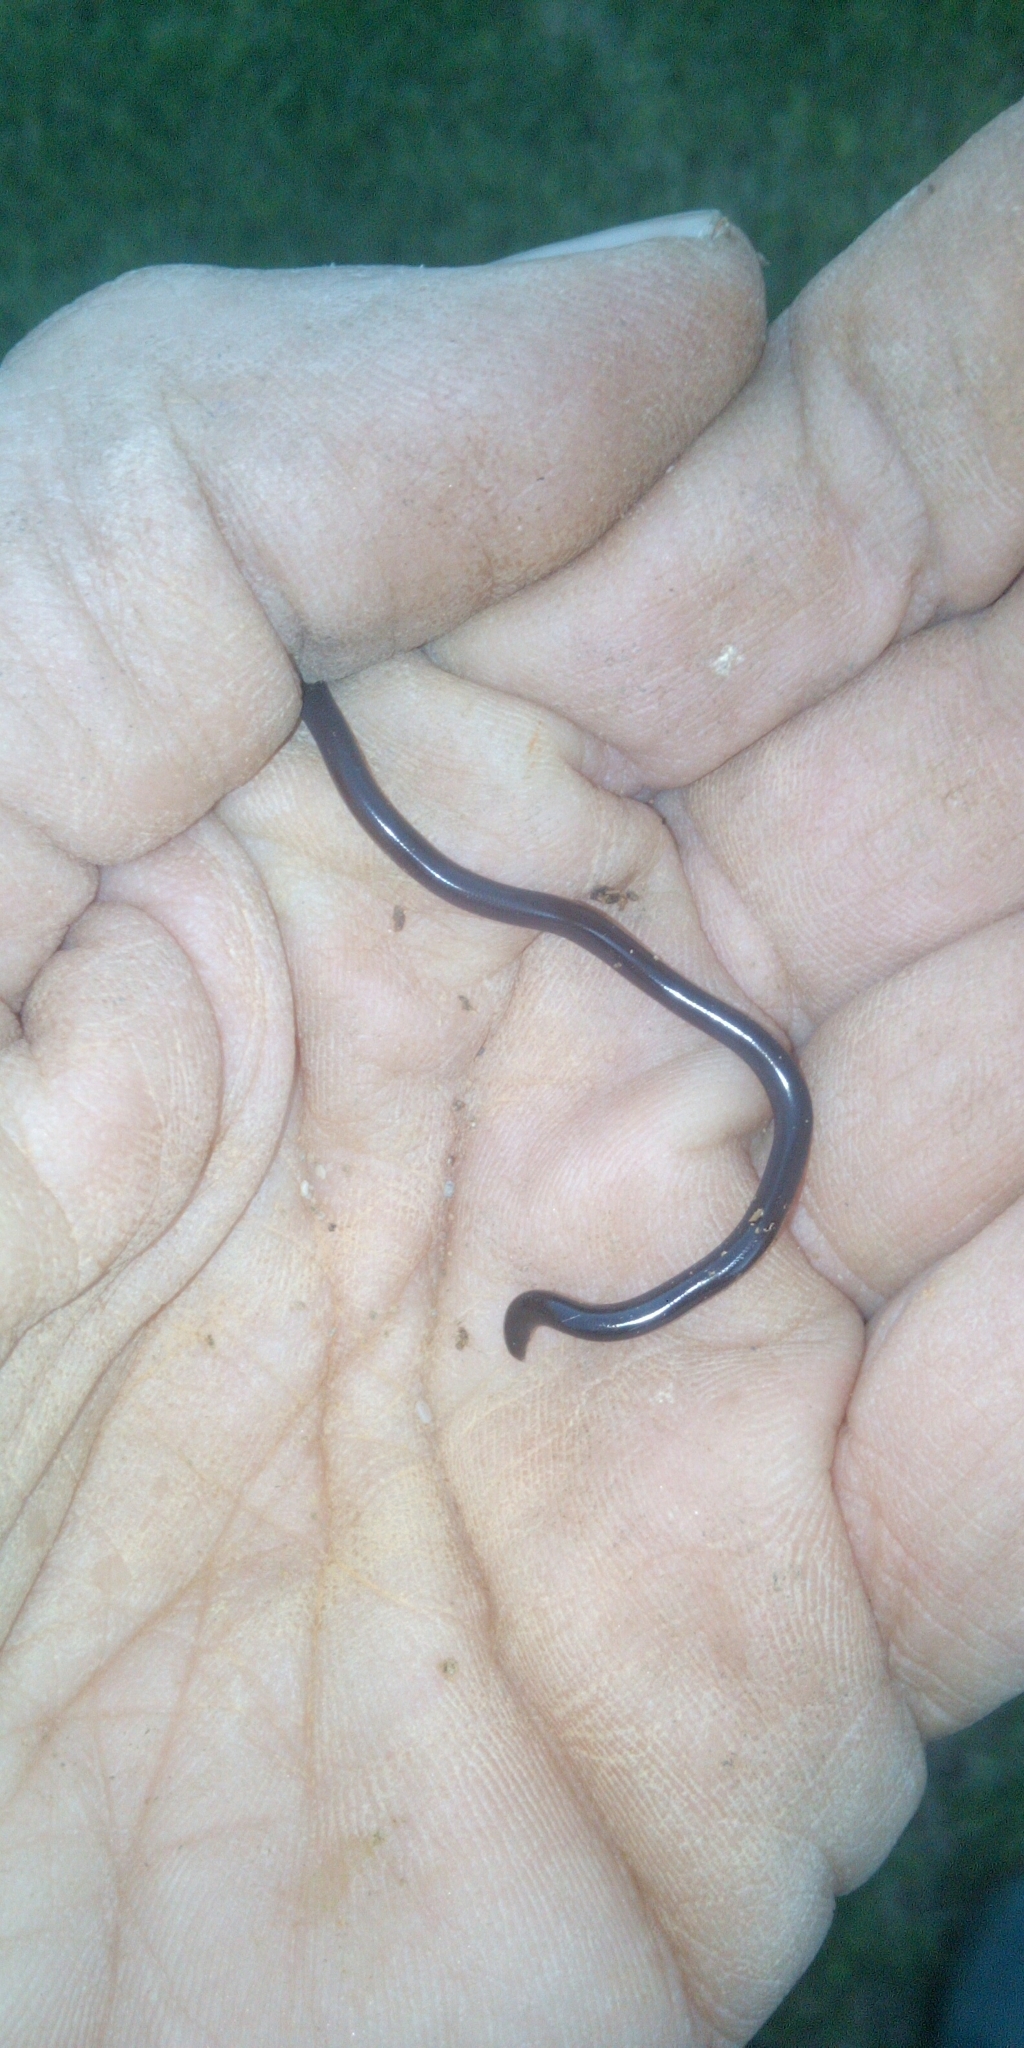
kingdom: Animalia
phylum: Chordata
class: Squamata
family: Typhlopidae
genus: Indotyphlops
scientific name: Indotyphlops braminus
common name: Brahminy blindsnake
